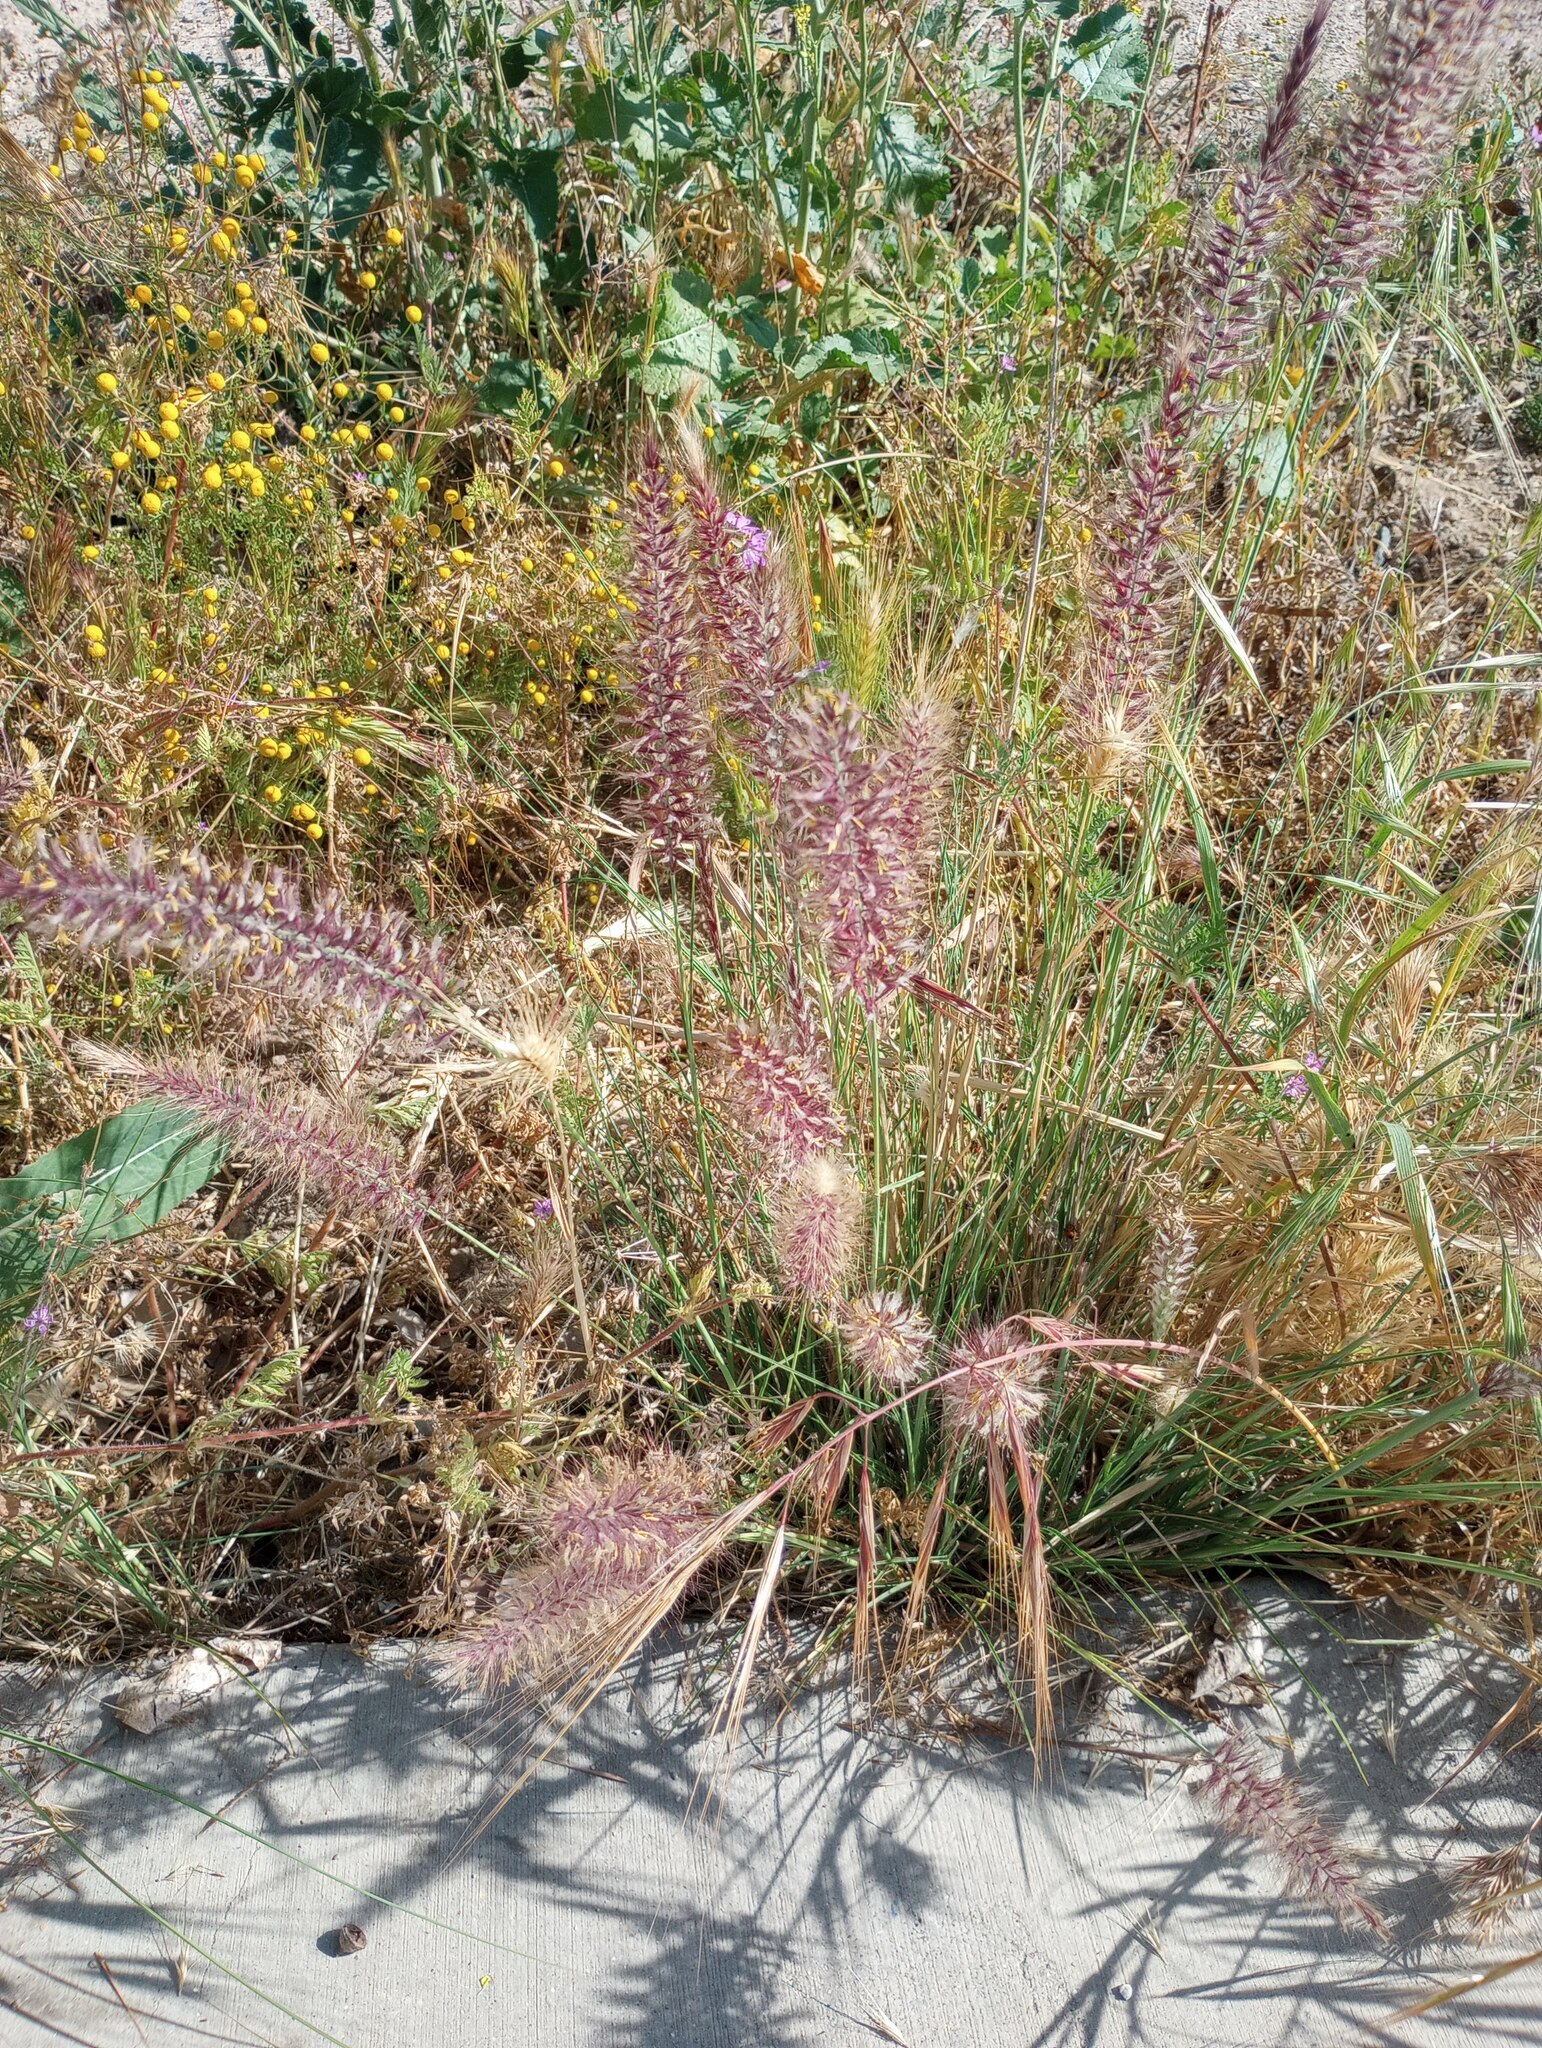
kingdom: Plantae
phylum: Tracheophyta
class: Liliopsida
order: Poales
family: Poaceae
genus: Cenchrus
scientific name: Cenchrus setaceus
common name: Crimson fountaingrass
